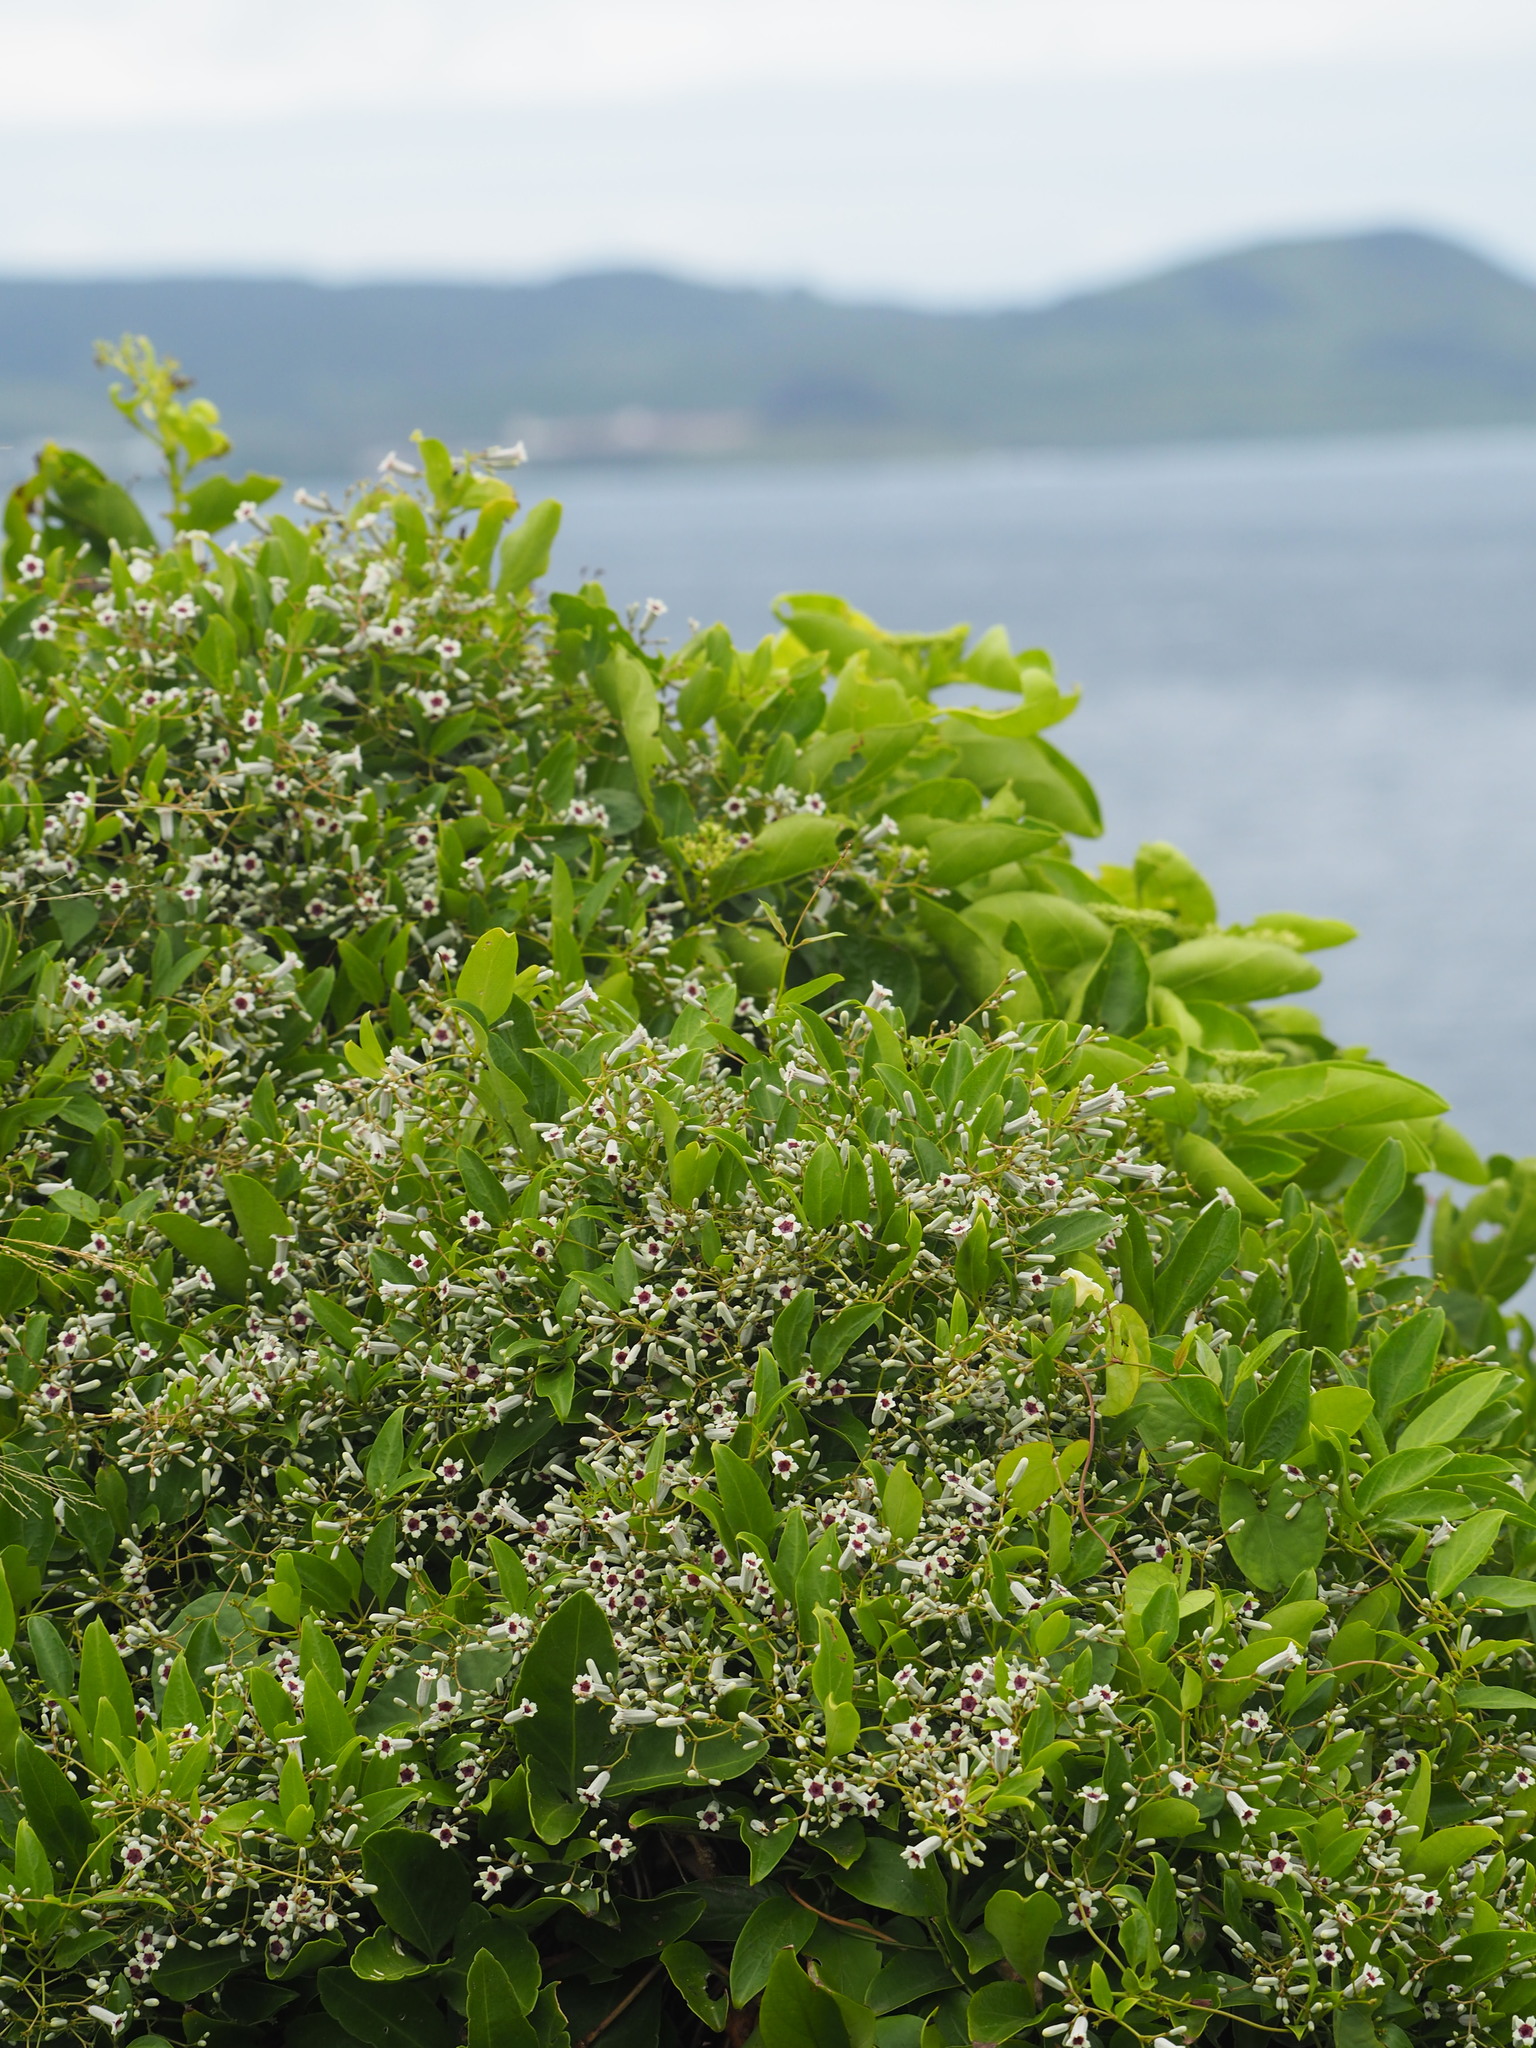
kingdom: Plantae
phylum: Tracheophyta
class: Magnoliopsida
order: Gentianales
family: Rubiaceae
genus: Paederia
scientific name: Paederia foetida
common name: Stinkvine
